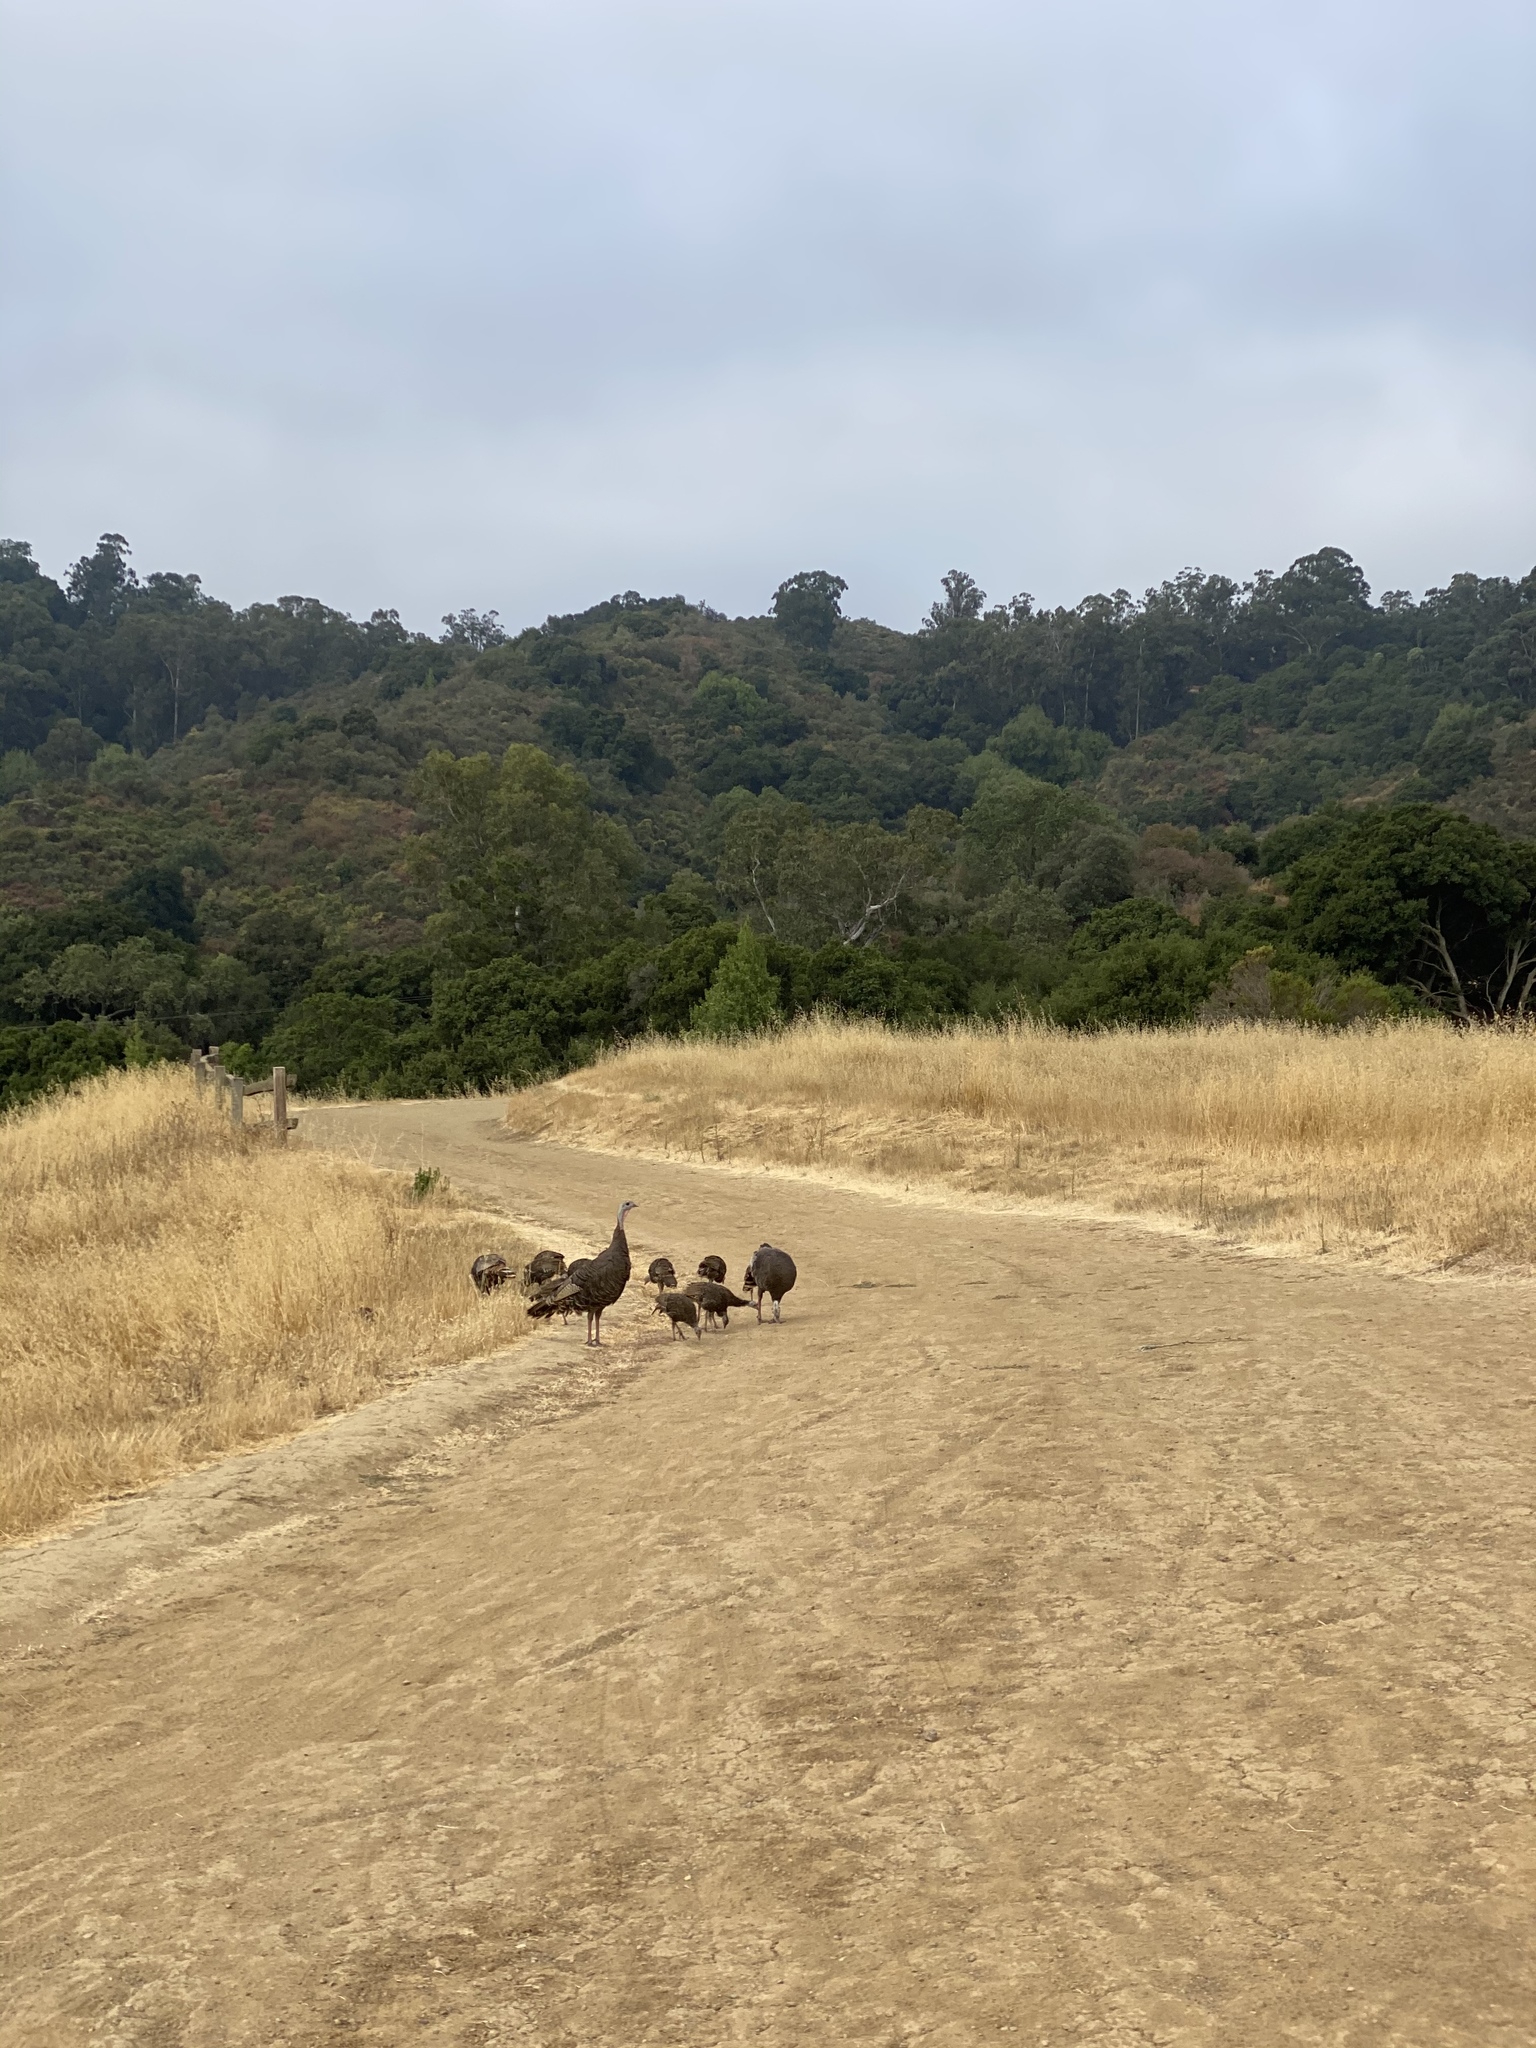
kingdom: Animalia
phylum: Chordata
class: Aves
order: Galliformes
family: Phasianidae
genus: Meleagris
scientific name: Meleagris gallopavo
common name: Wild turkey
